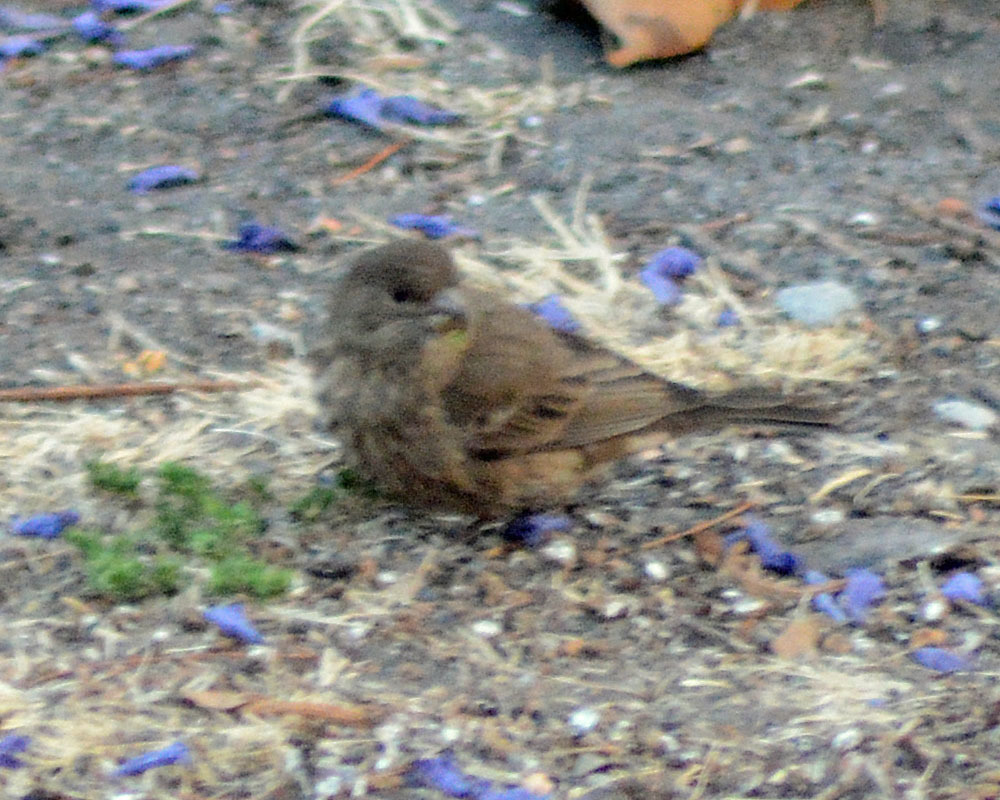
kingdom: Animalia
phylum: Chordata
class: Aves
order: Passeriformes
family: Fringillidae
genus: Haemorhous
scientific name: Haemorhous mexicanus
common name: House finch
